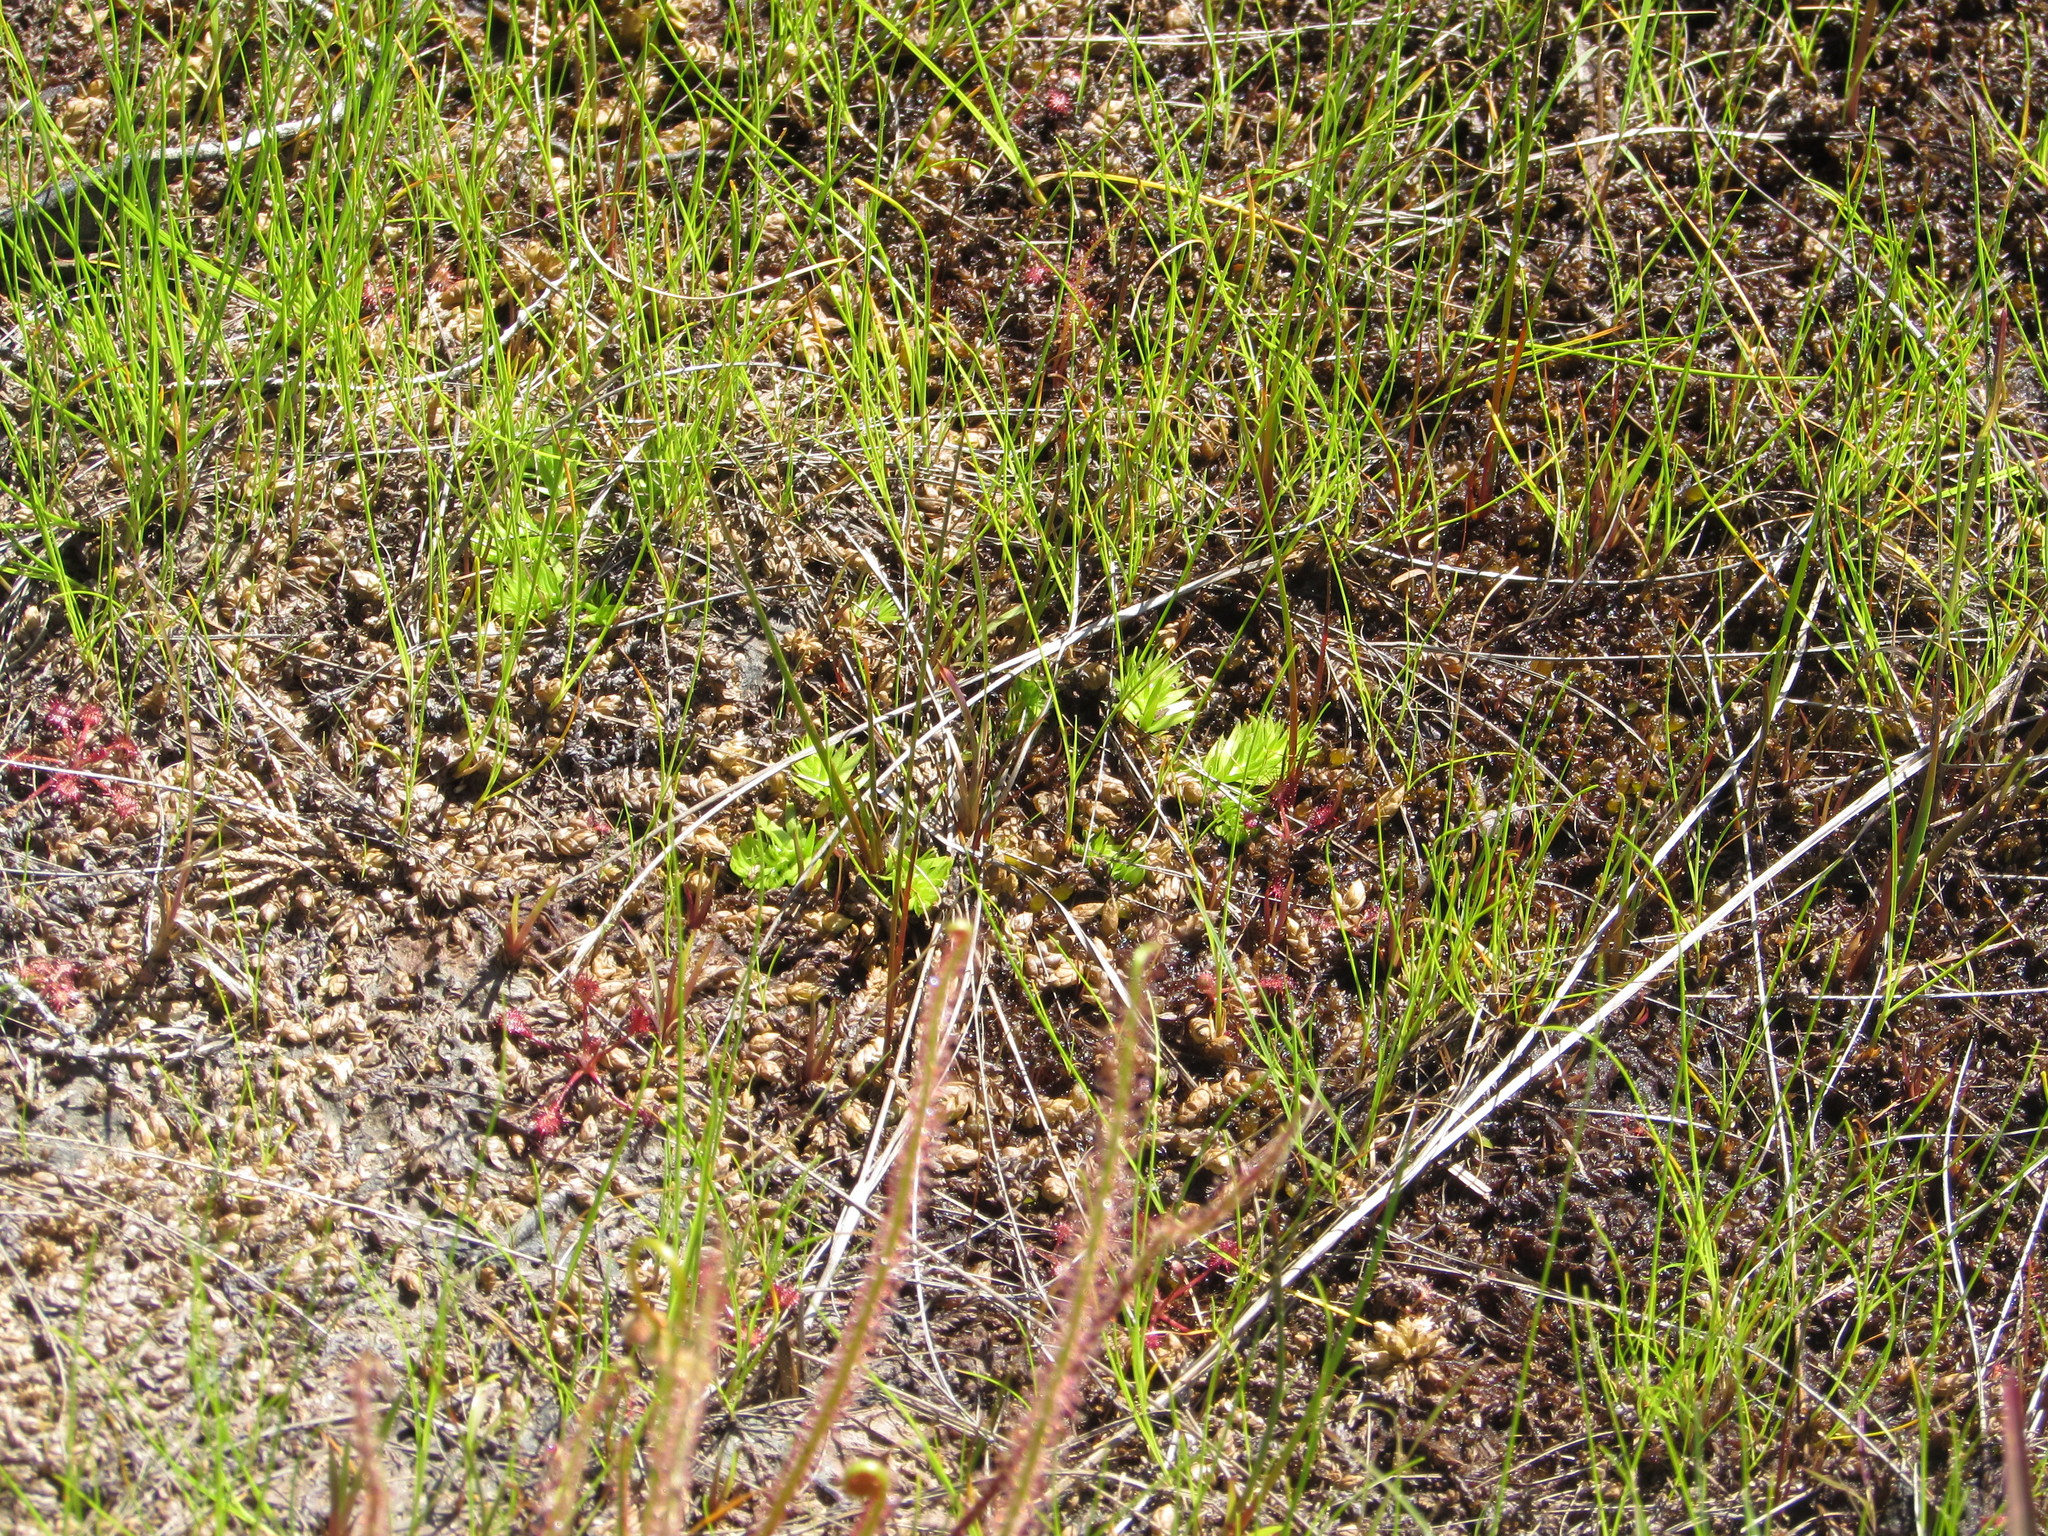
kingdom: Plantae
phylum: Tracheophyta
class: Lycopodiopsida
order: Lycopodiales
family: Lycopodiaceae
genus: Pseudolycopodiella
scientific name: Pseudolycopodiella caroliniana
